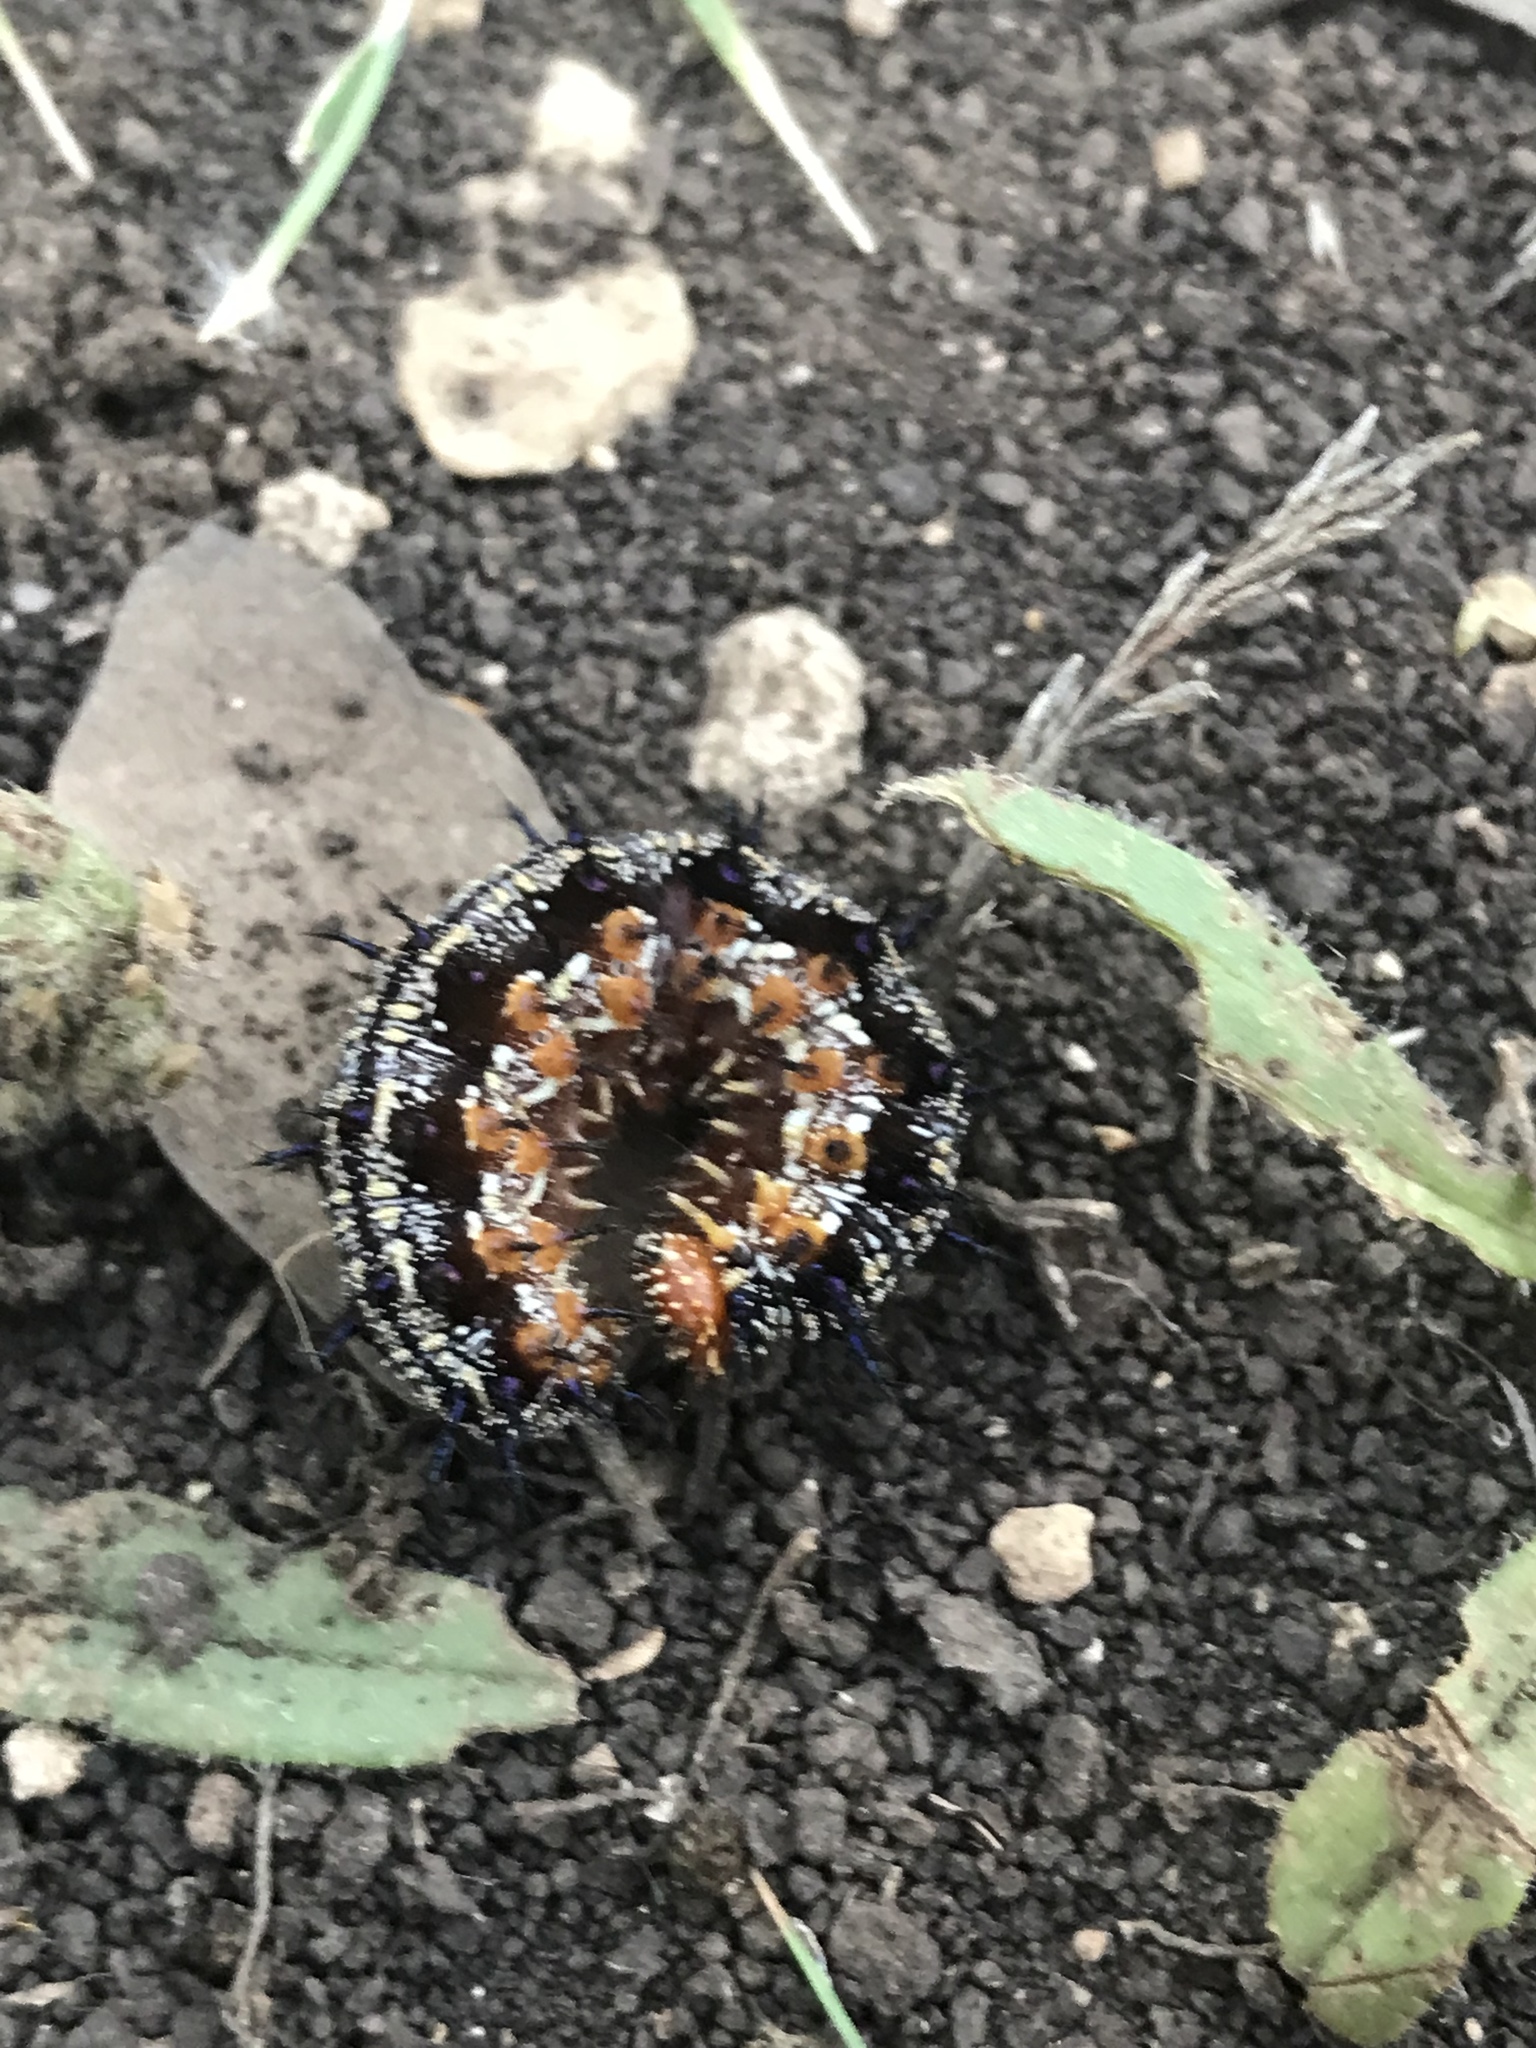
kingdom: Animalia
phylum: Arthropoda
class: Insecta
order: Lepidoptera
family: Nymphalidae
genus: Junonia
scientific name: Junonia coenia
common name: Common buckeye
